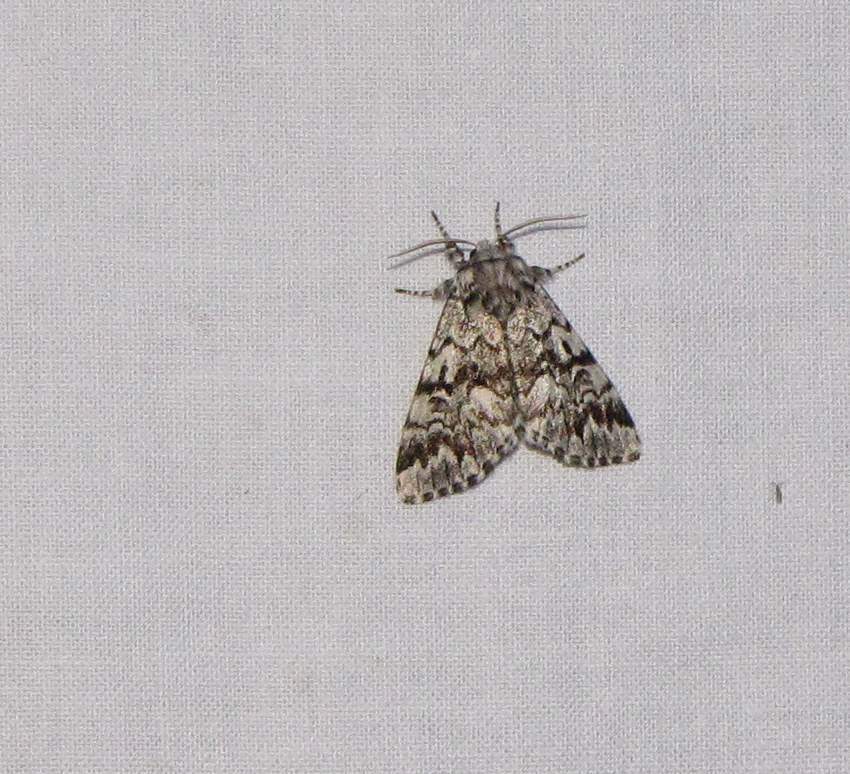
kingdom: Animalia
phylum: Arthropoda
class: Insecta
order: Lepidoptera
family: Noctuidae
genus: Panthea
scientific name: Panthea acronyctoides
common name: Black zigzag moth
